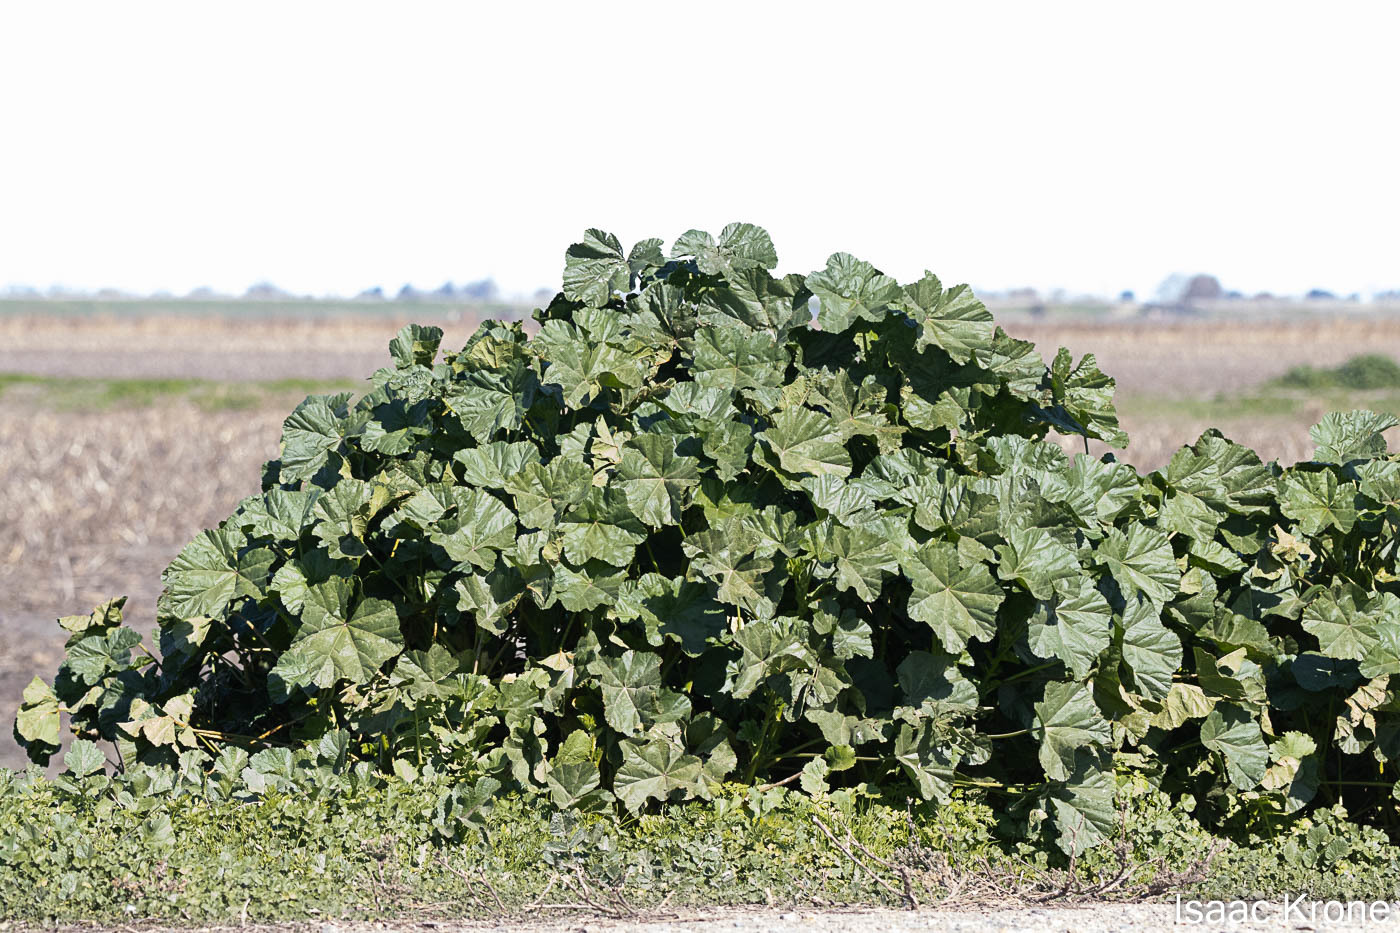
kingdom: Plantae
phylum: Tracheophyta
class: Magnoliopsida
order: Malvales
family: Malvaceae
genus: Malva
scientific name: Malva
